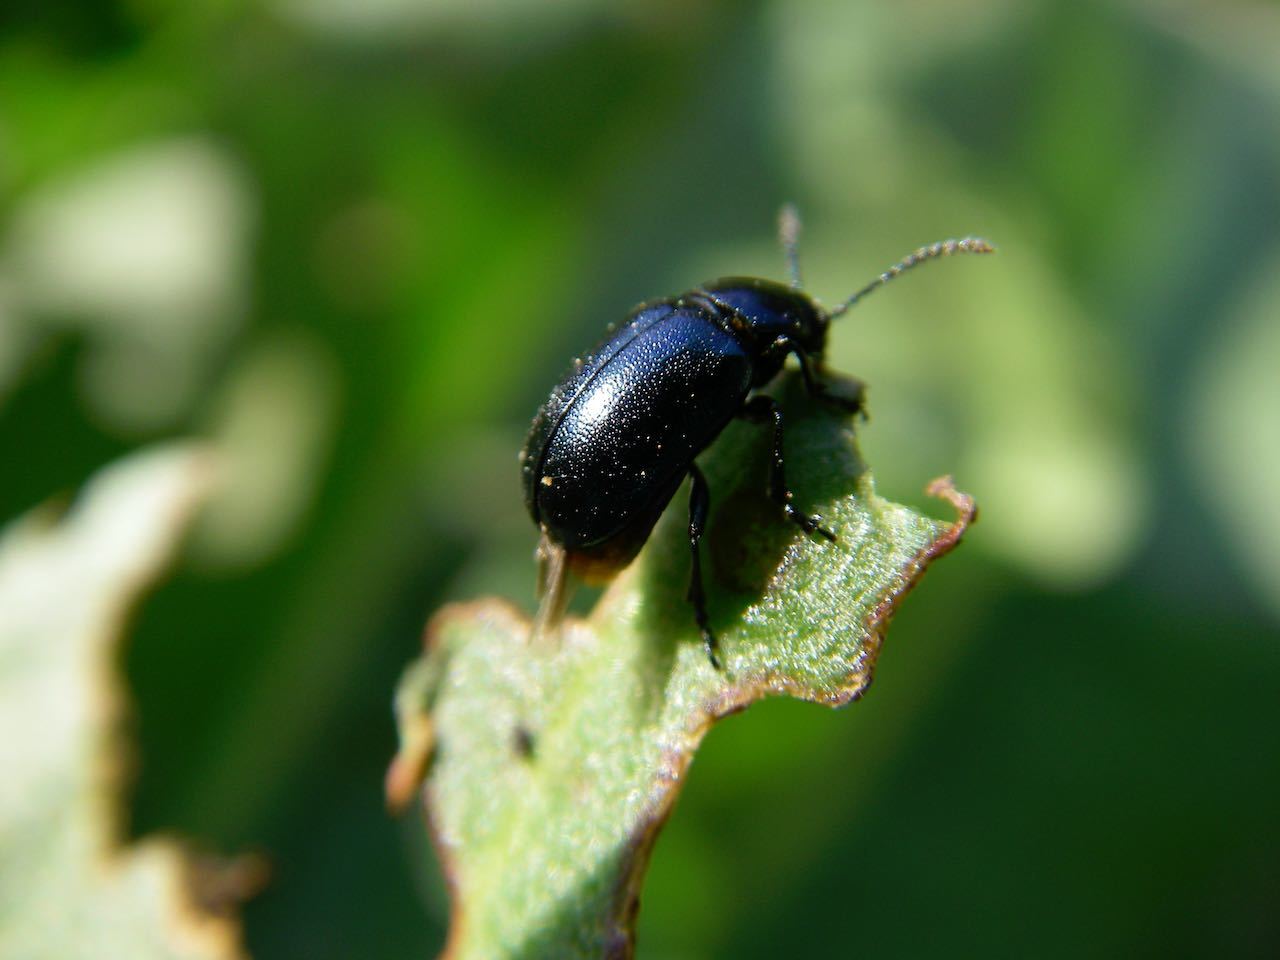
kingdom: Animalia
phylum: Arthropoda
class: Insecta
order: Coleoptera
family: Chrysomelidae
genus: Gastrophysa
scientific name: Gastrophysa atrocyanea
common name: Leaf beetle
